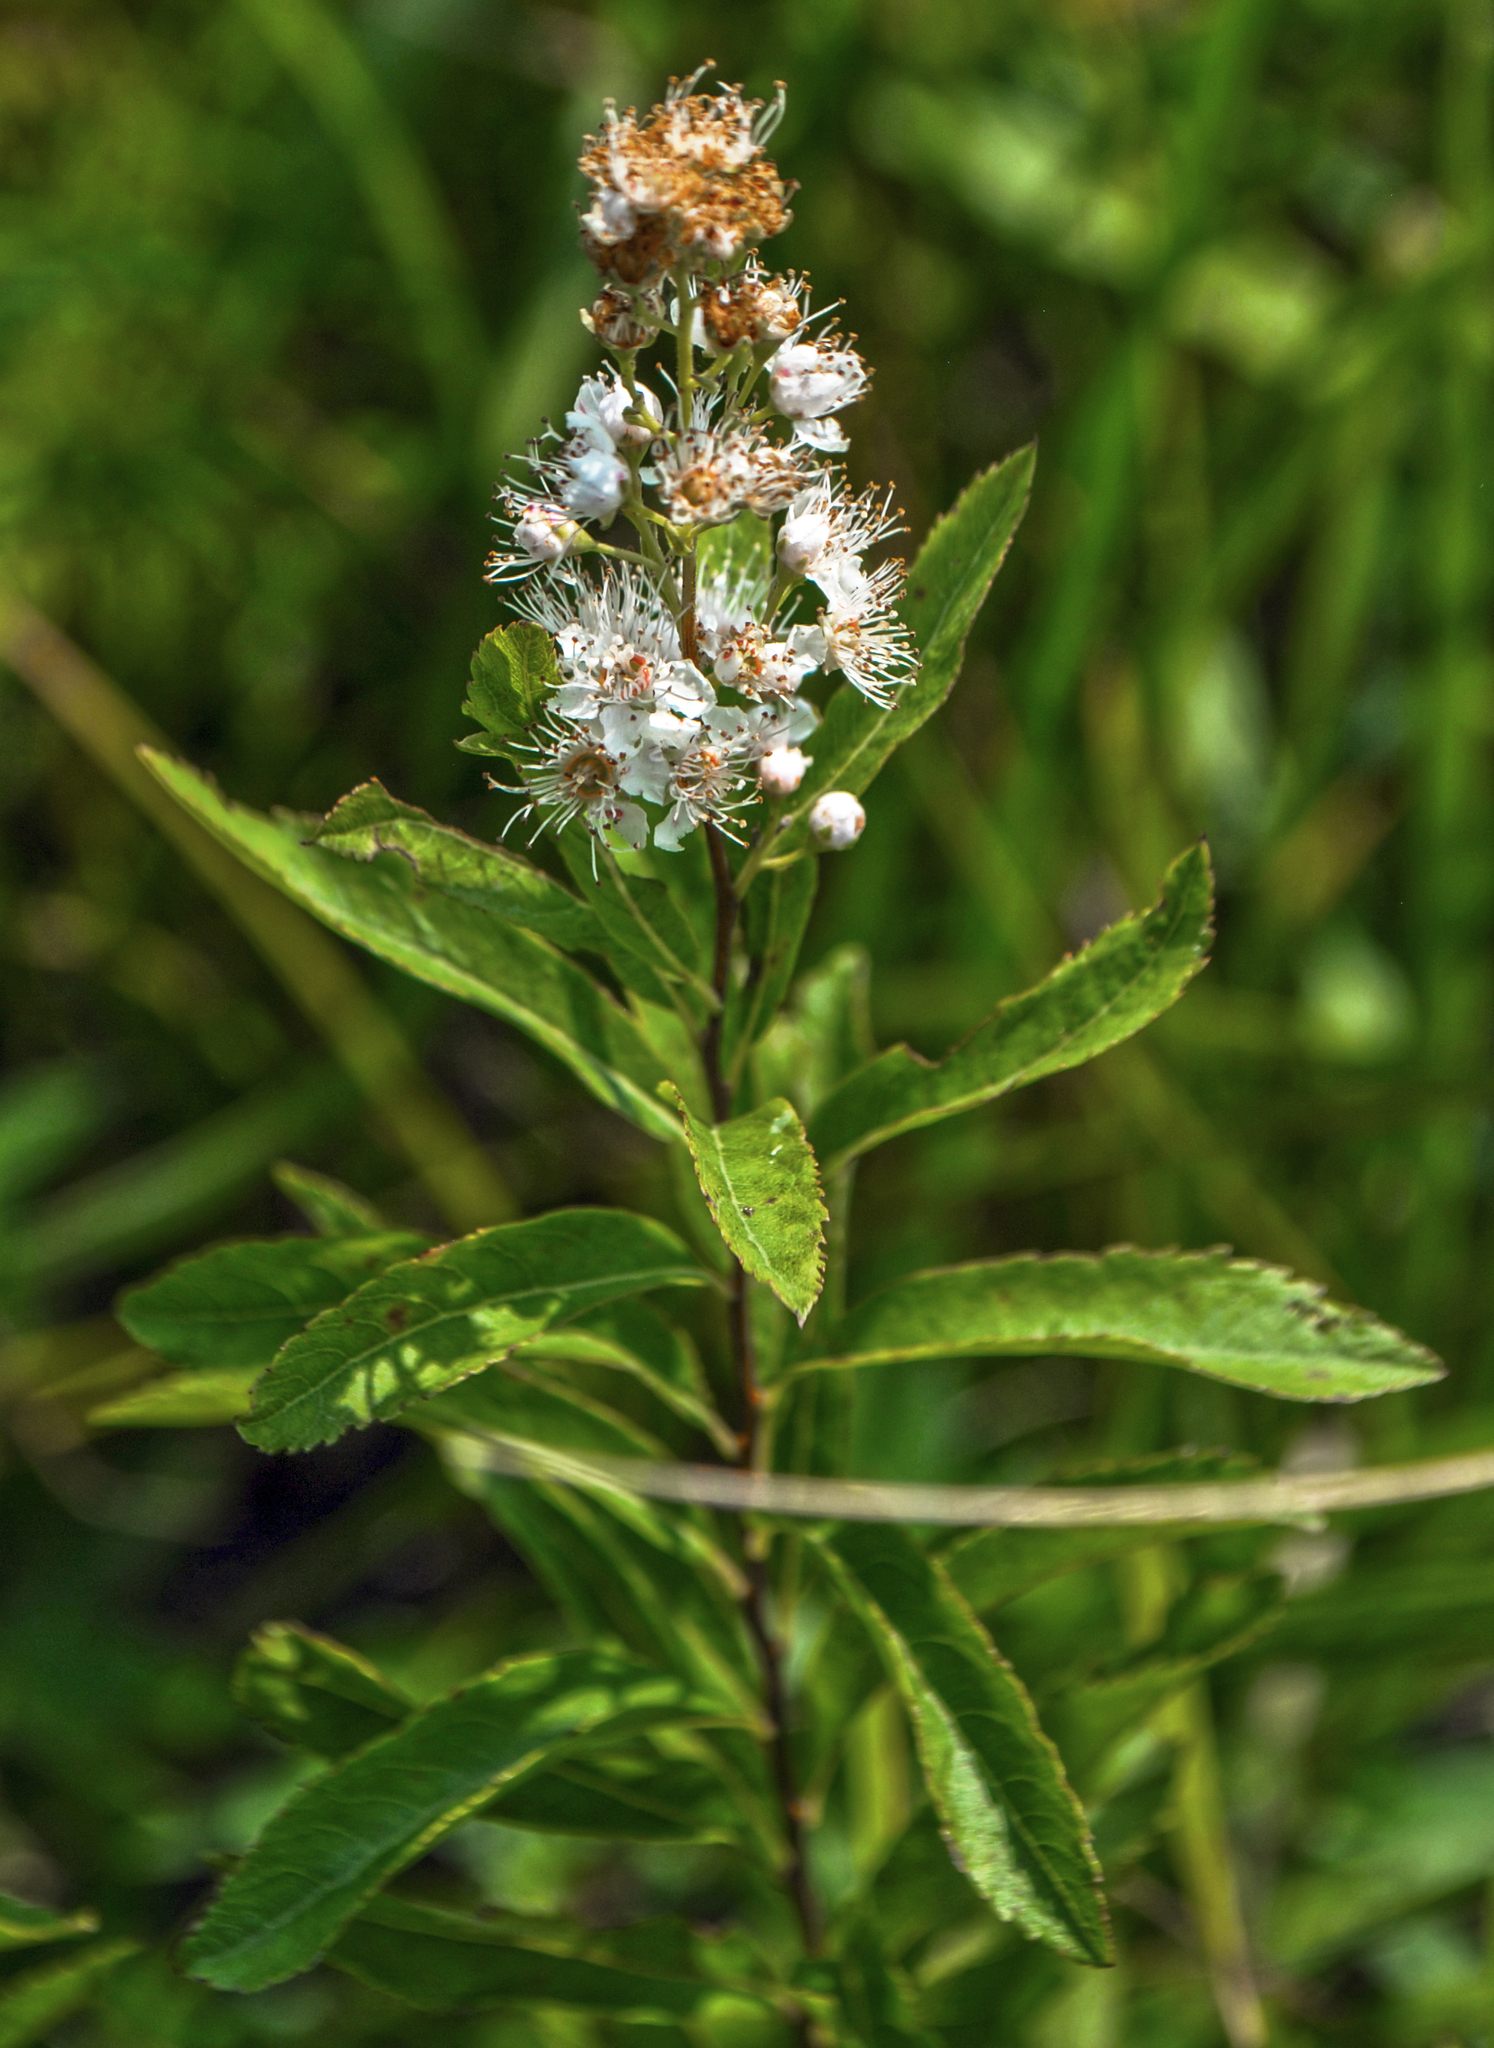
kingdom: Plantae
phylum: Tracheophyta
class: Magnoliopsida
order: Rosales
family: Rosaceae
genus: Spiraea
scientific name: Spiraea alba
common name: Pale bridewort
